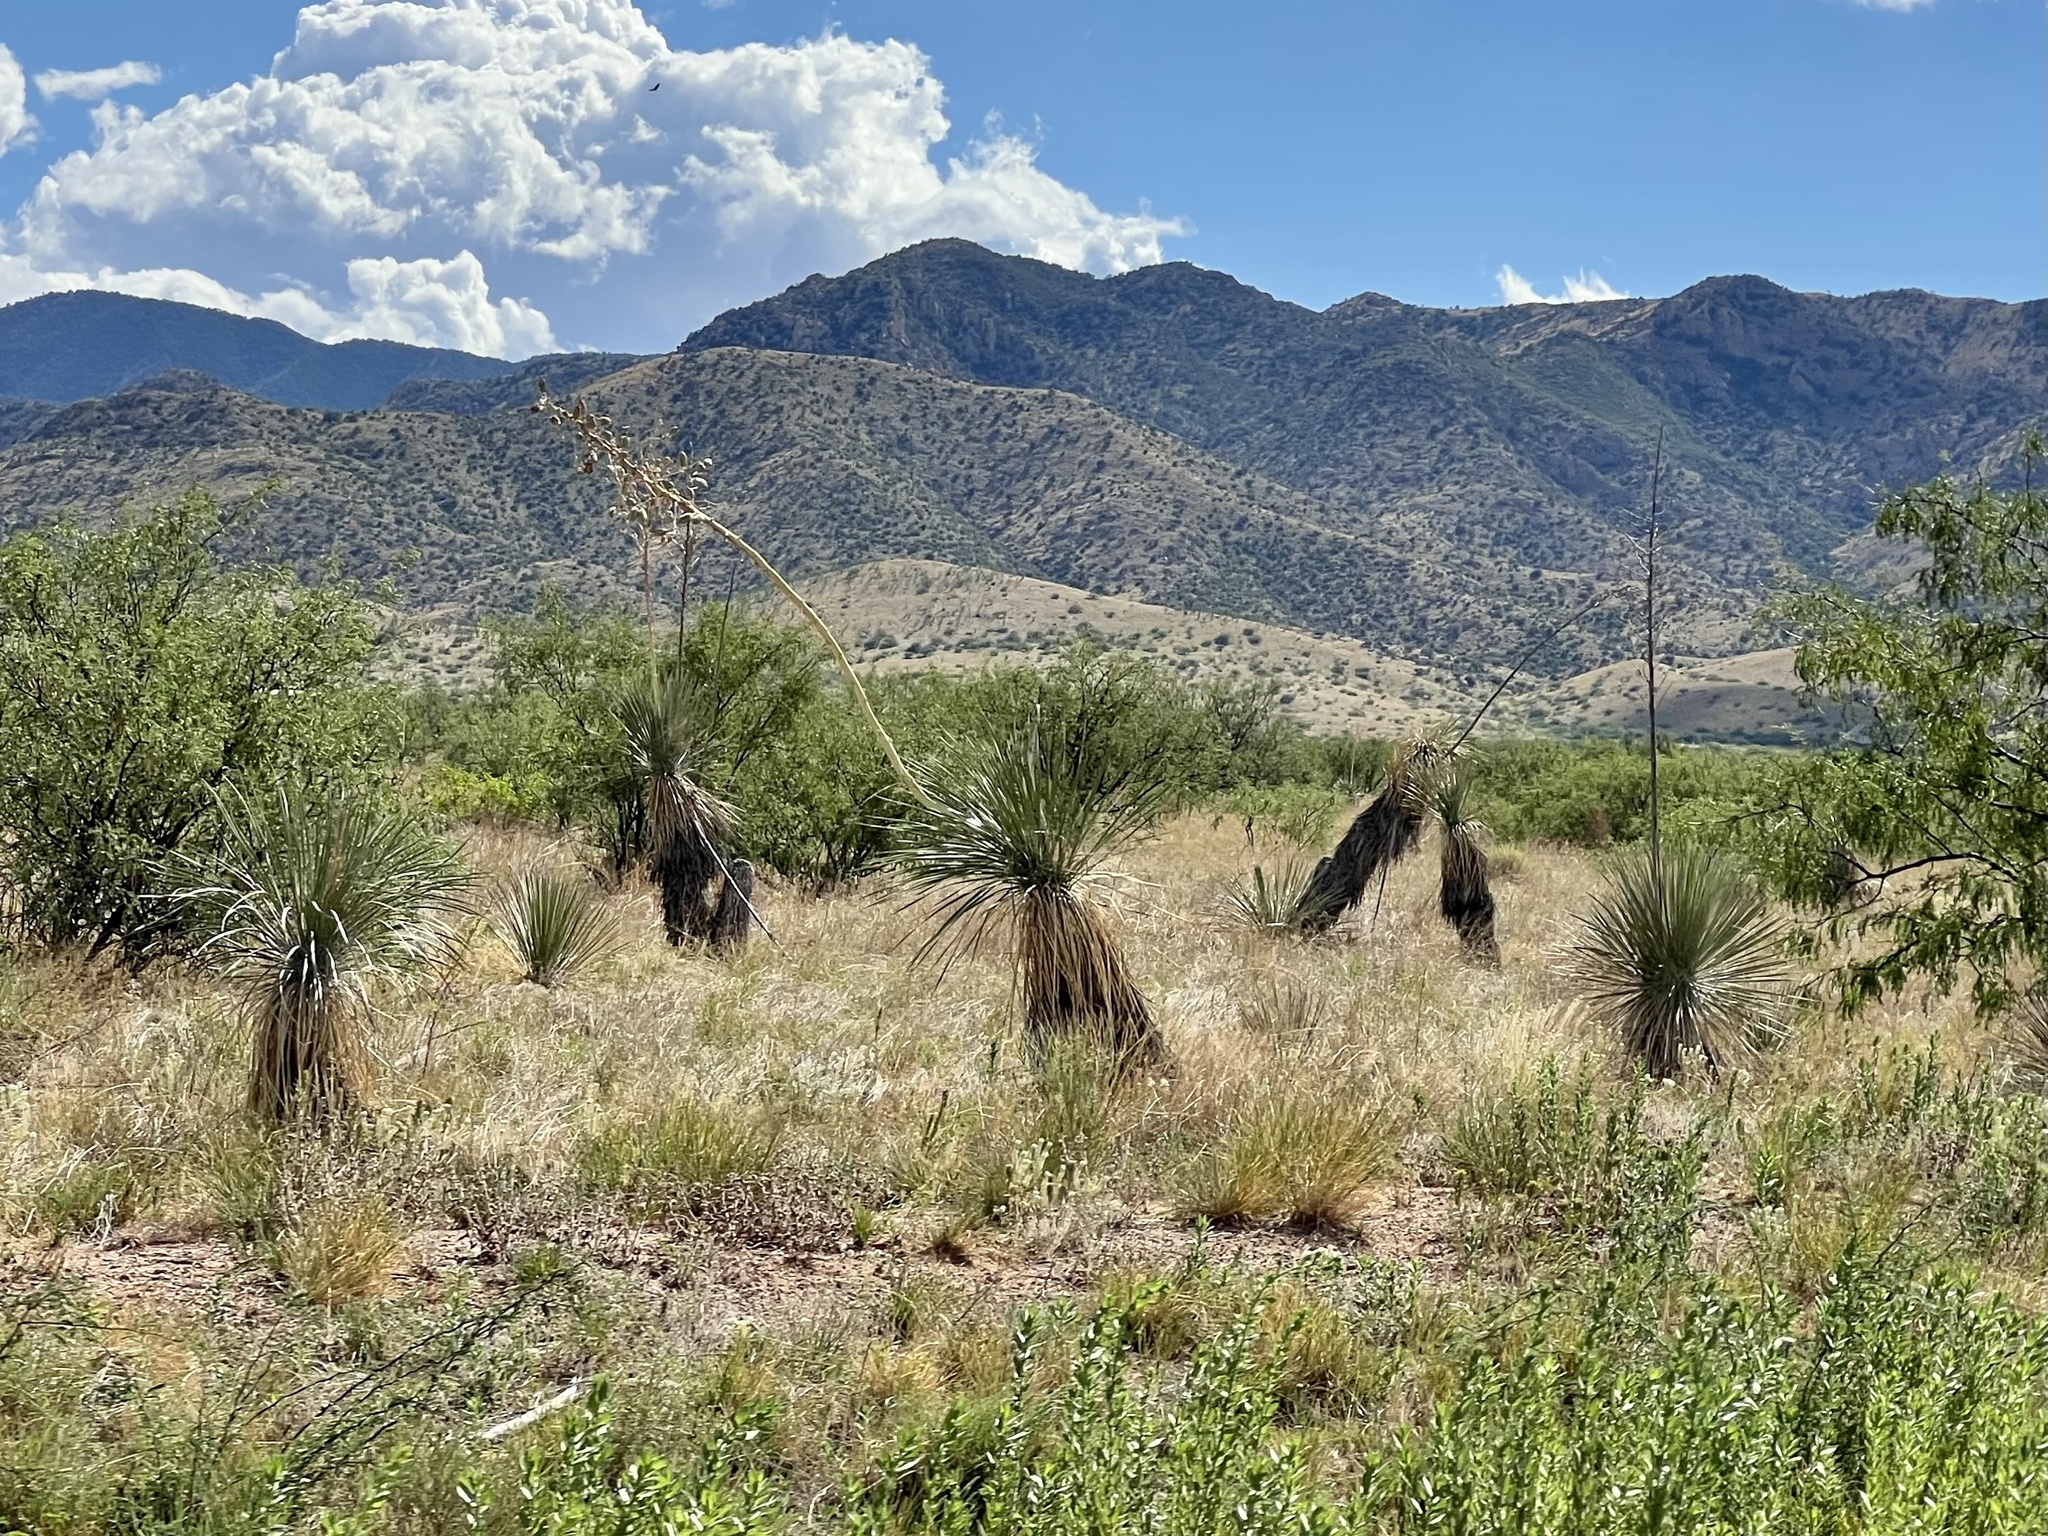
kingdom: Plantae
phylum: Tracheophyta
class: Liliopsida
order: Asparagales
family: Asparagaceae
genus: Yucca
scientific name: Yucca elata
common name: Palmella
